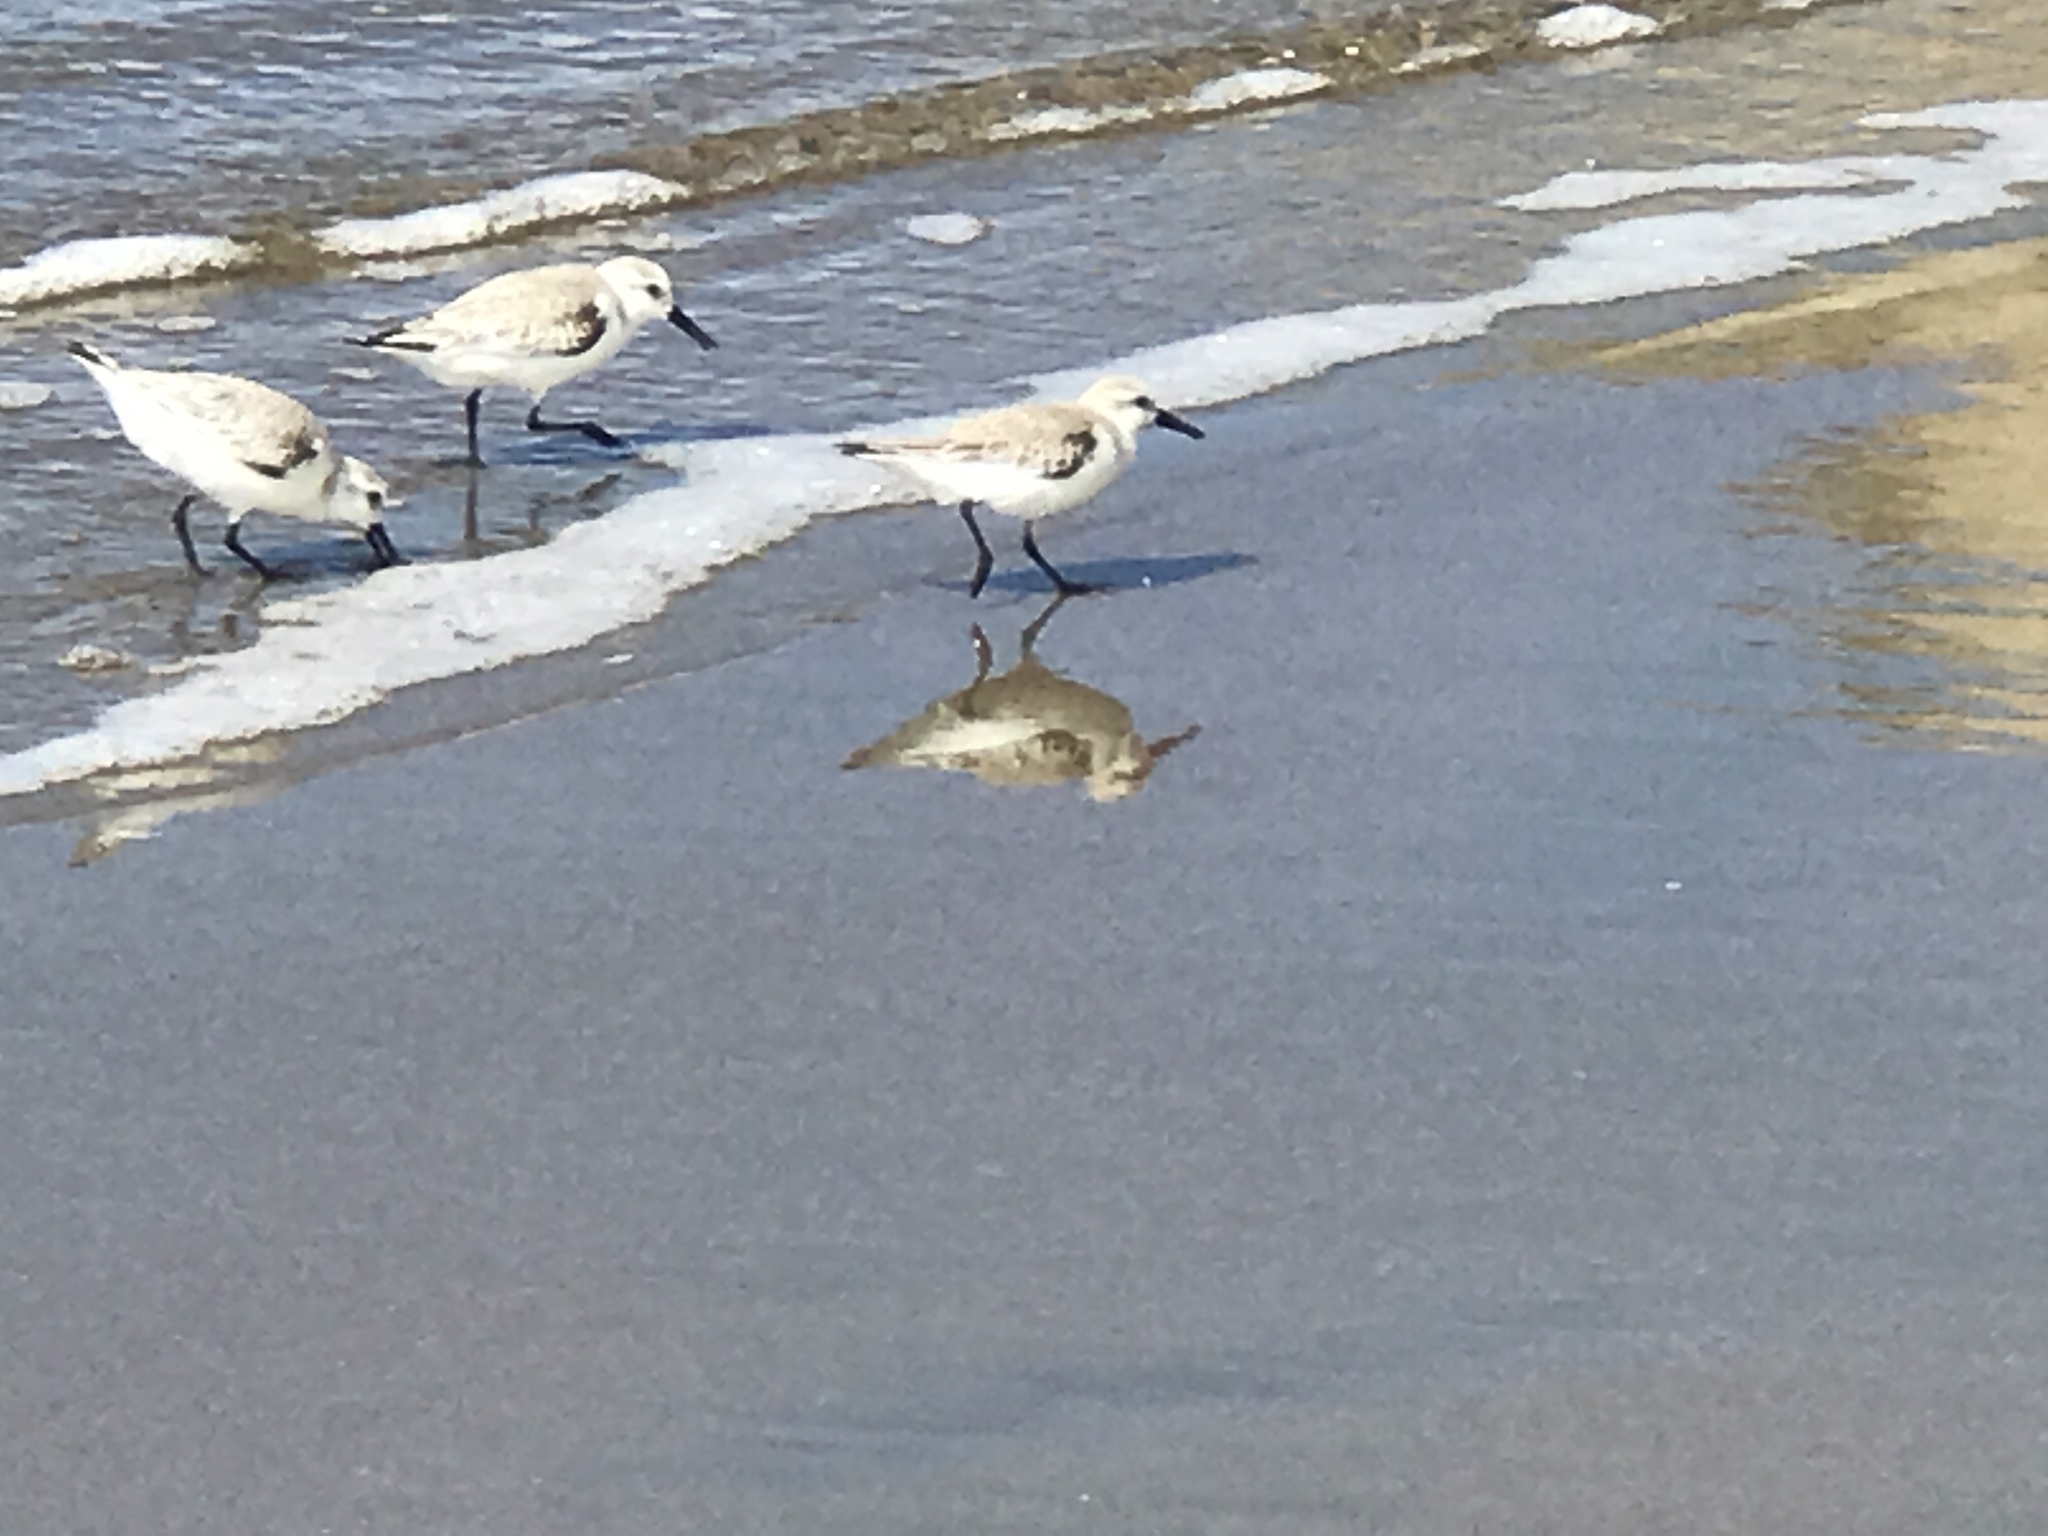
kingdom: Animalia
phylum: Chordata
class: Aves
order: Charadriiformes
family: Scolopacidae
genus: Calidris
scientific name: Calidris alba
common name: Sanderling
